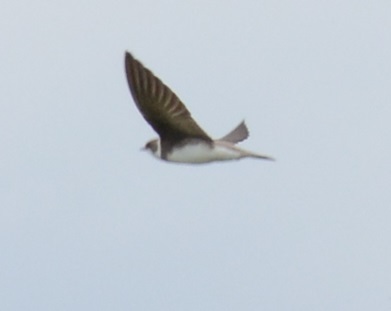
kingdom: Animalia
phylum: Chordata
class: Aves
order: Passeriformes
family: Hirundinidae
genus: Riparia
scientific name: Riparia riparia
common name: Sand martin
